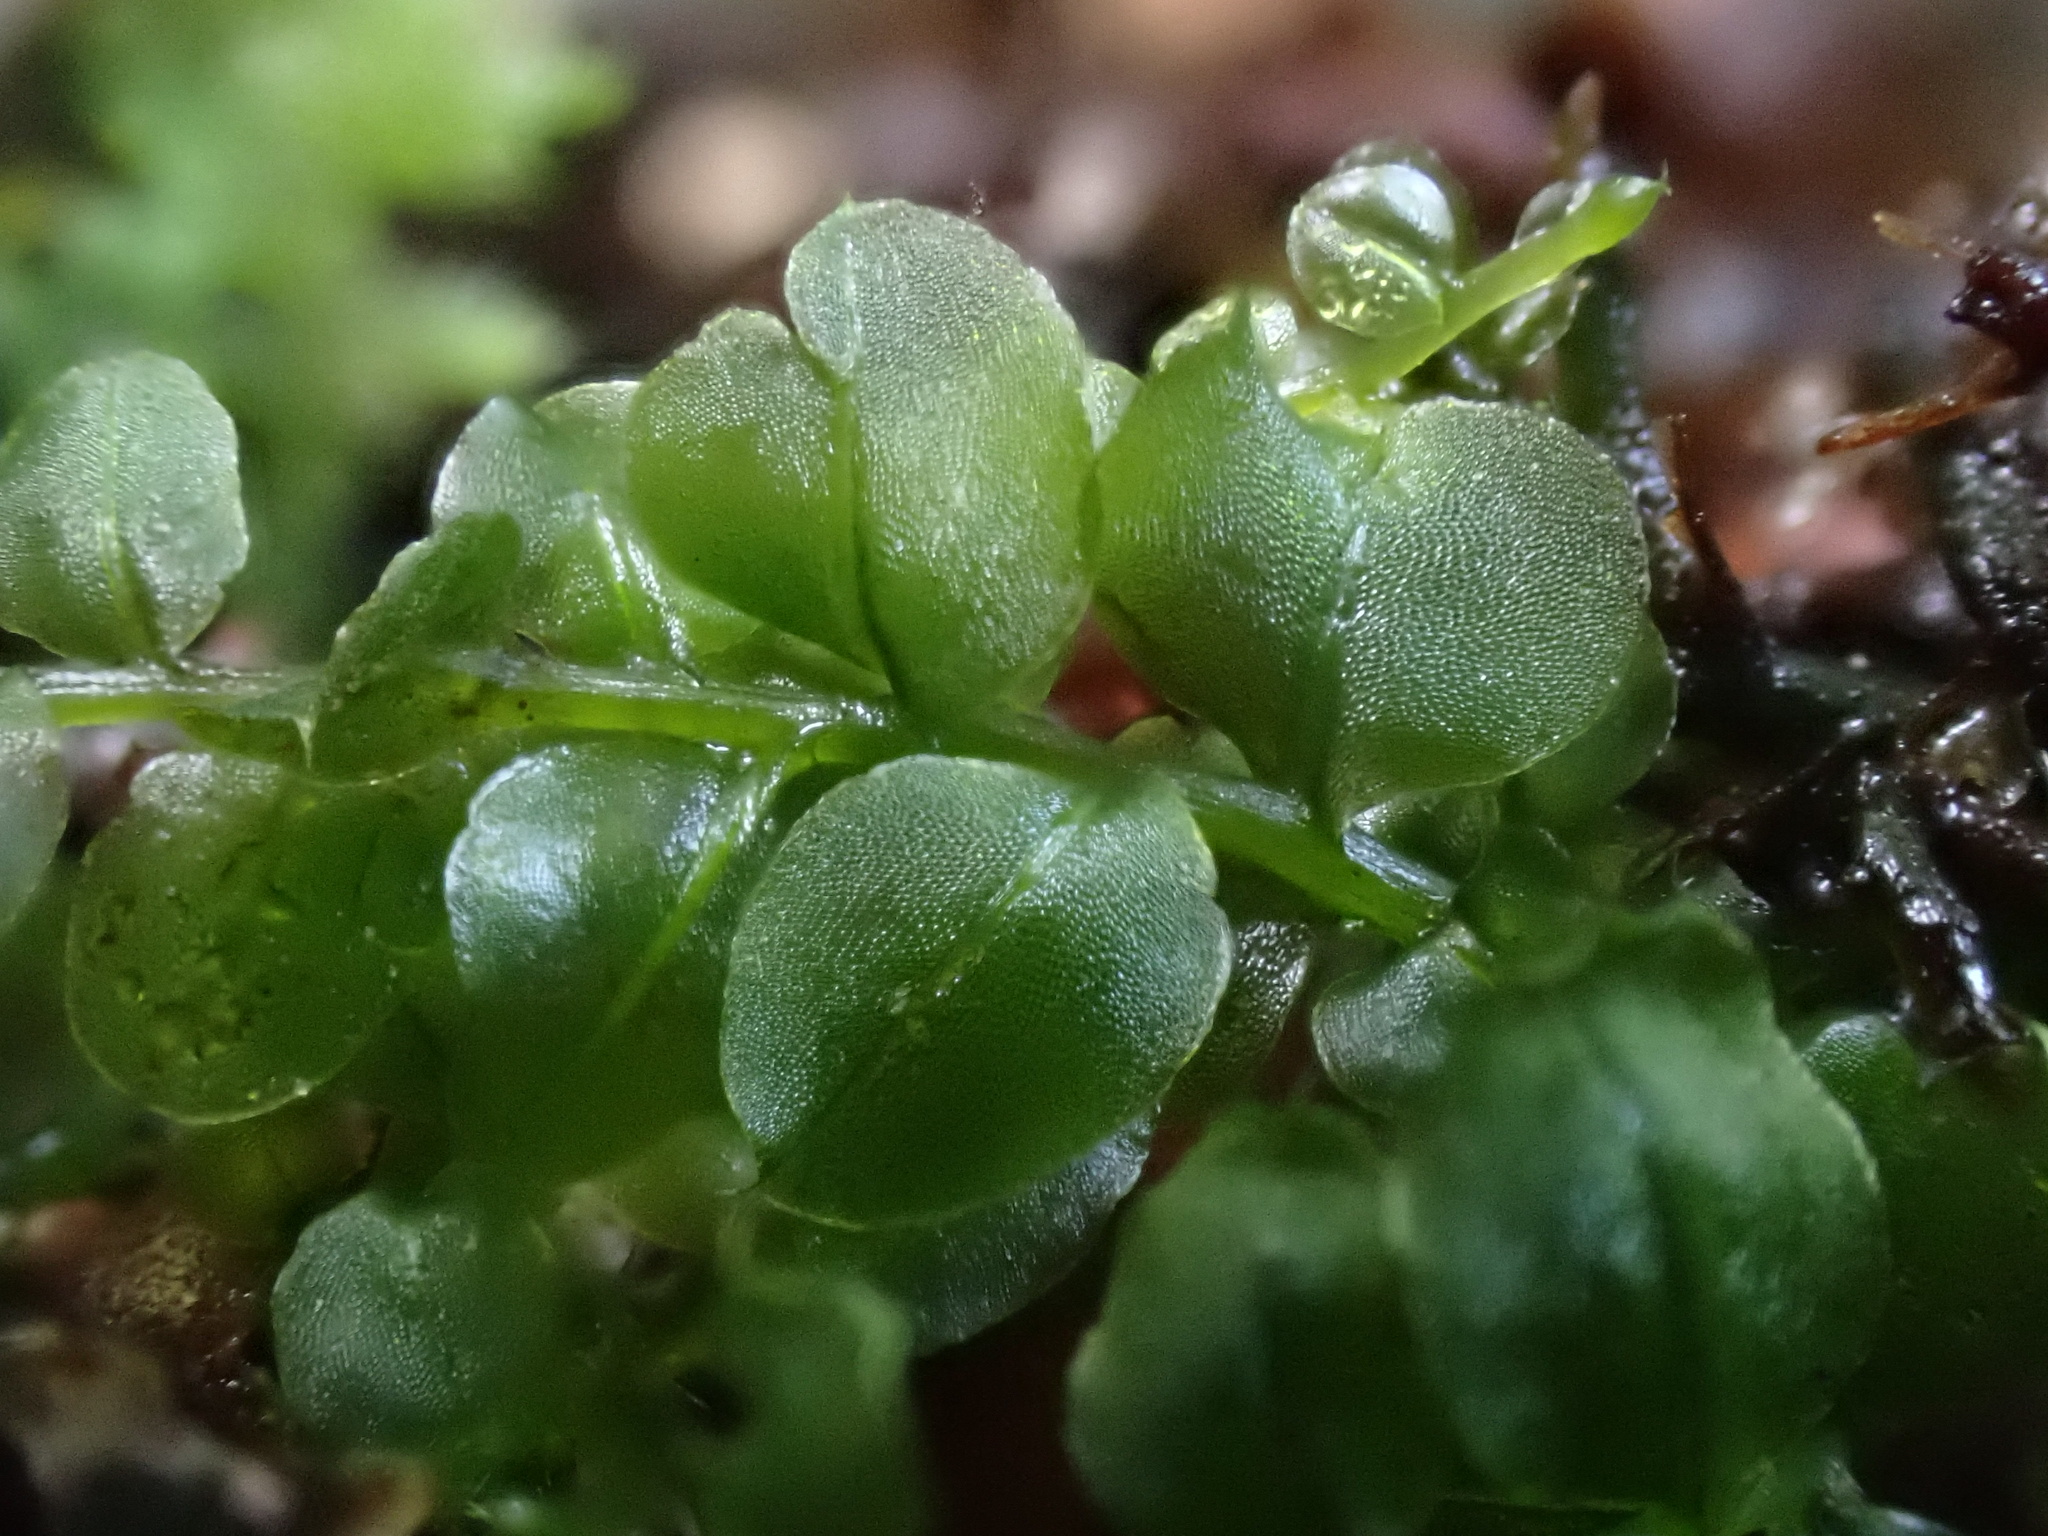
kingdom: Plantae
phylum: Bryophyta
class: Bryopsida
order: Bryales
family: Mniaceae
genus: Plagiomnium
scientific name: Plagiomnium affine
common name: Many-fruited thyme-moss
